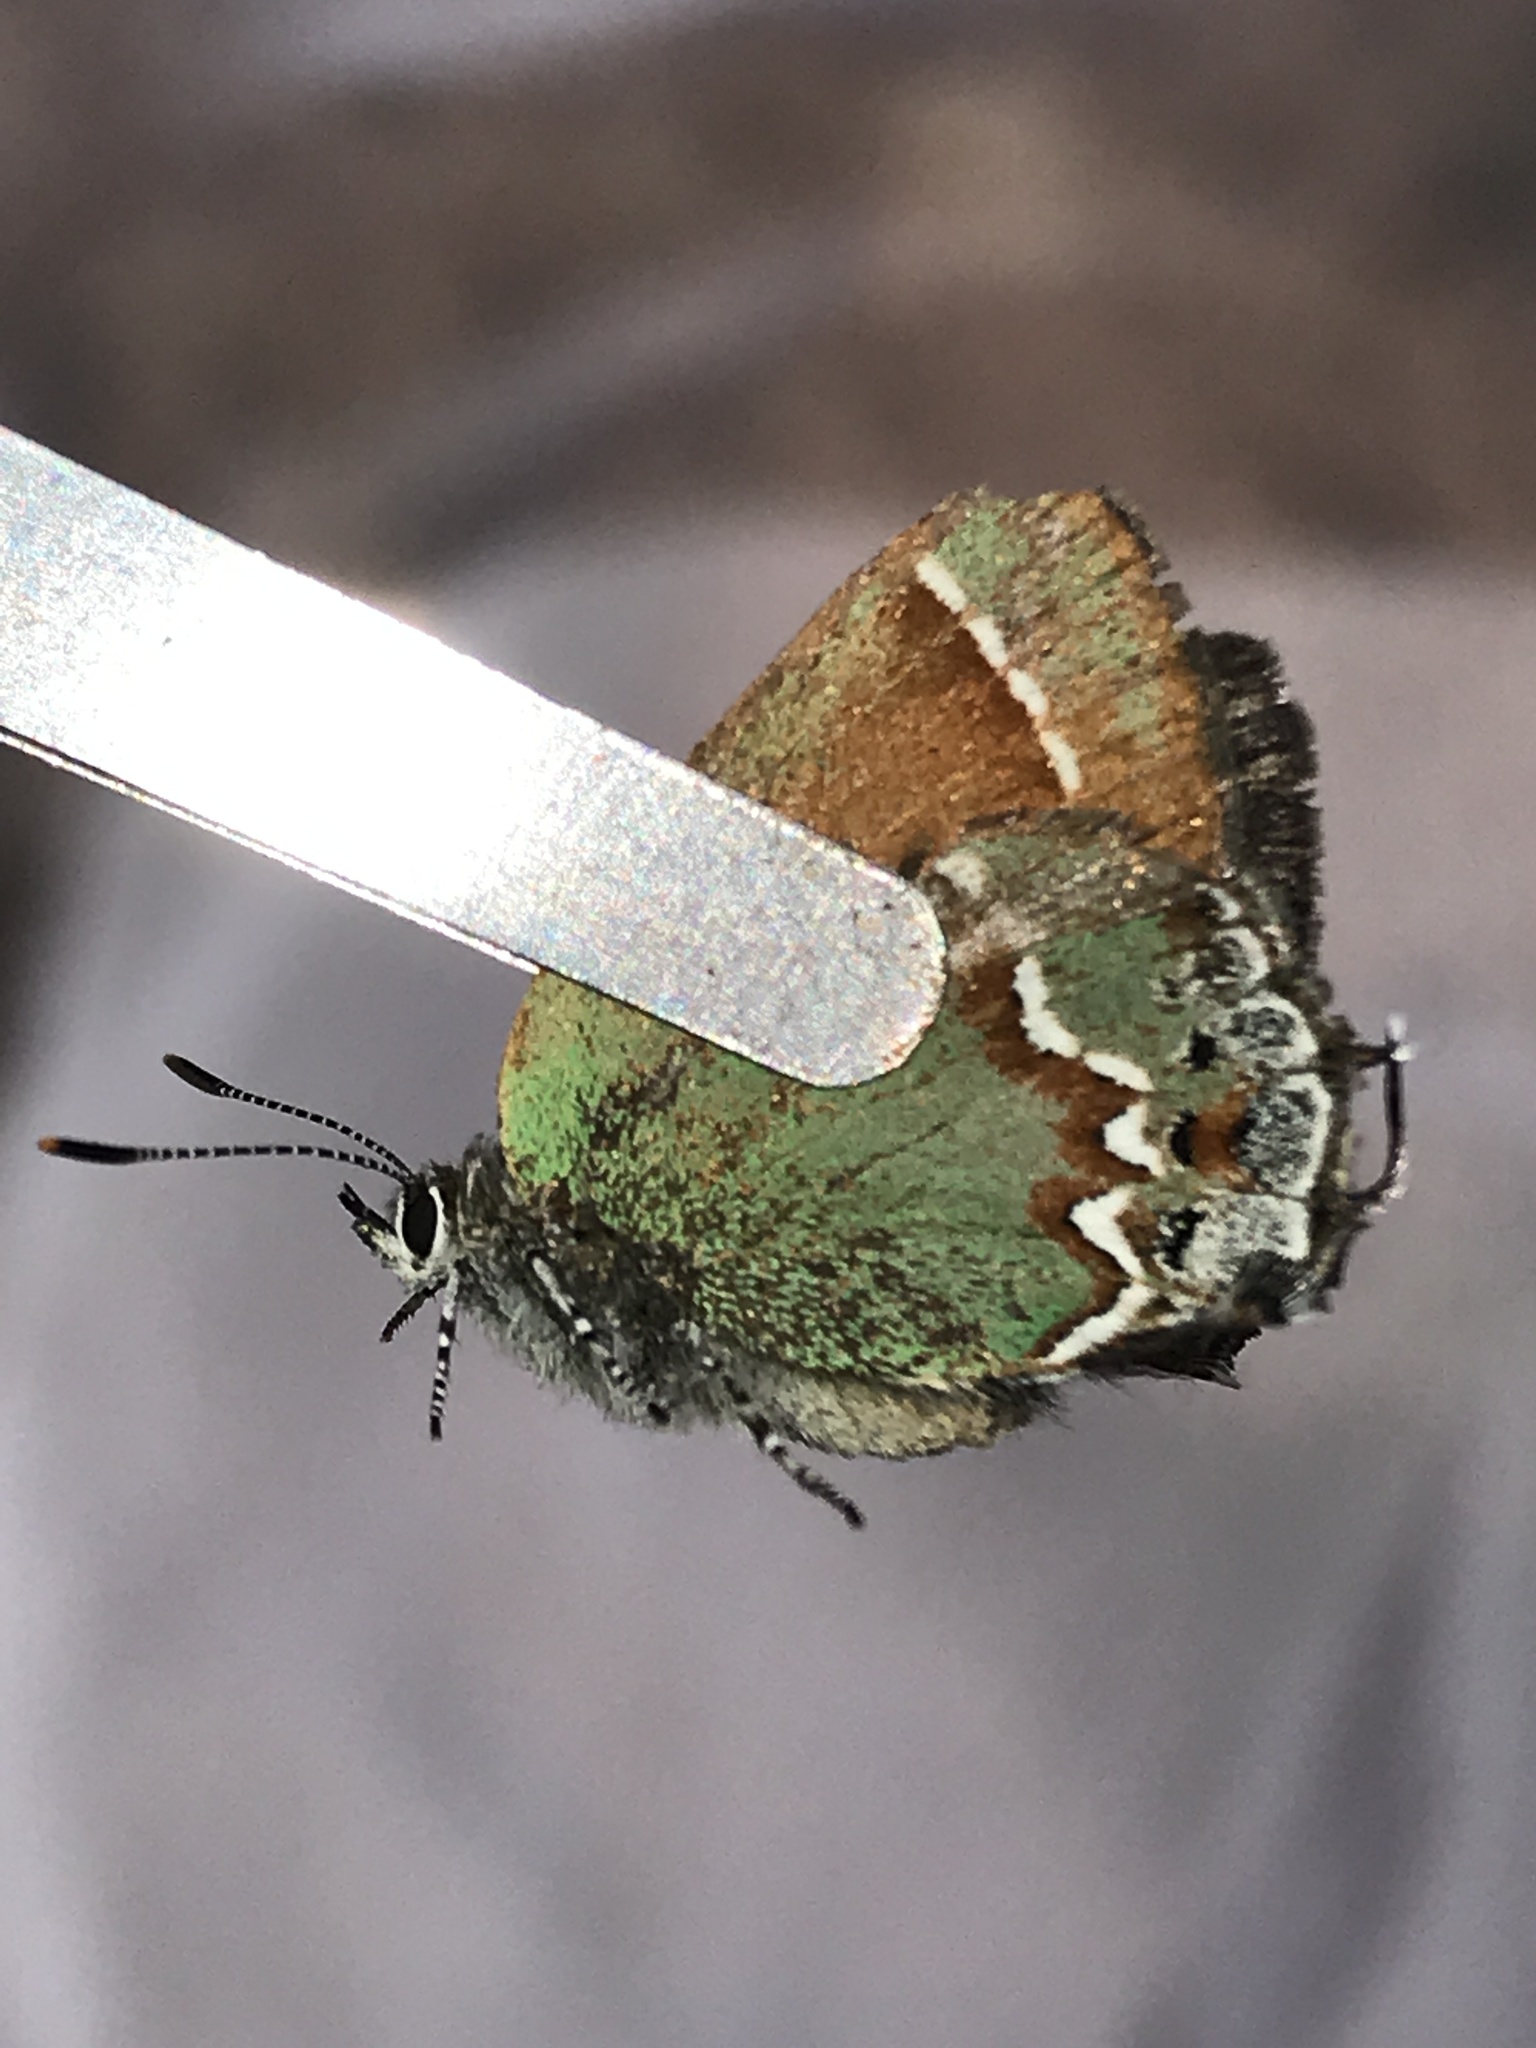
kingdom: Animalia
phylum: Arthropoda
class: Insecta
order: Lepidoptera
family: Lycaenidae
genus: Mitoura
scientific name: Mitoura siva
